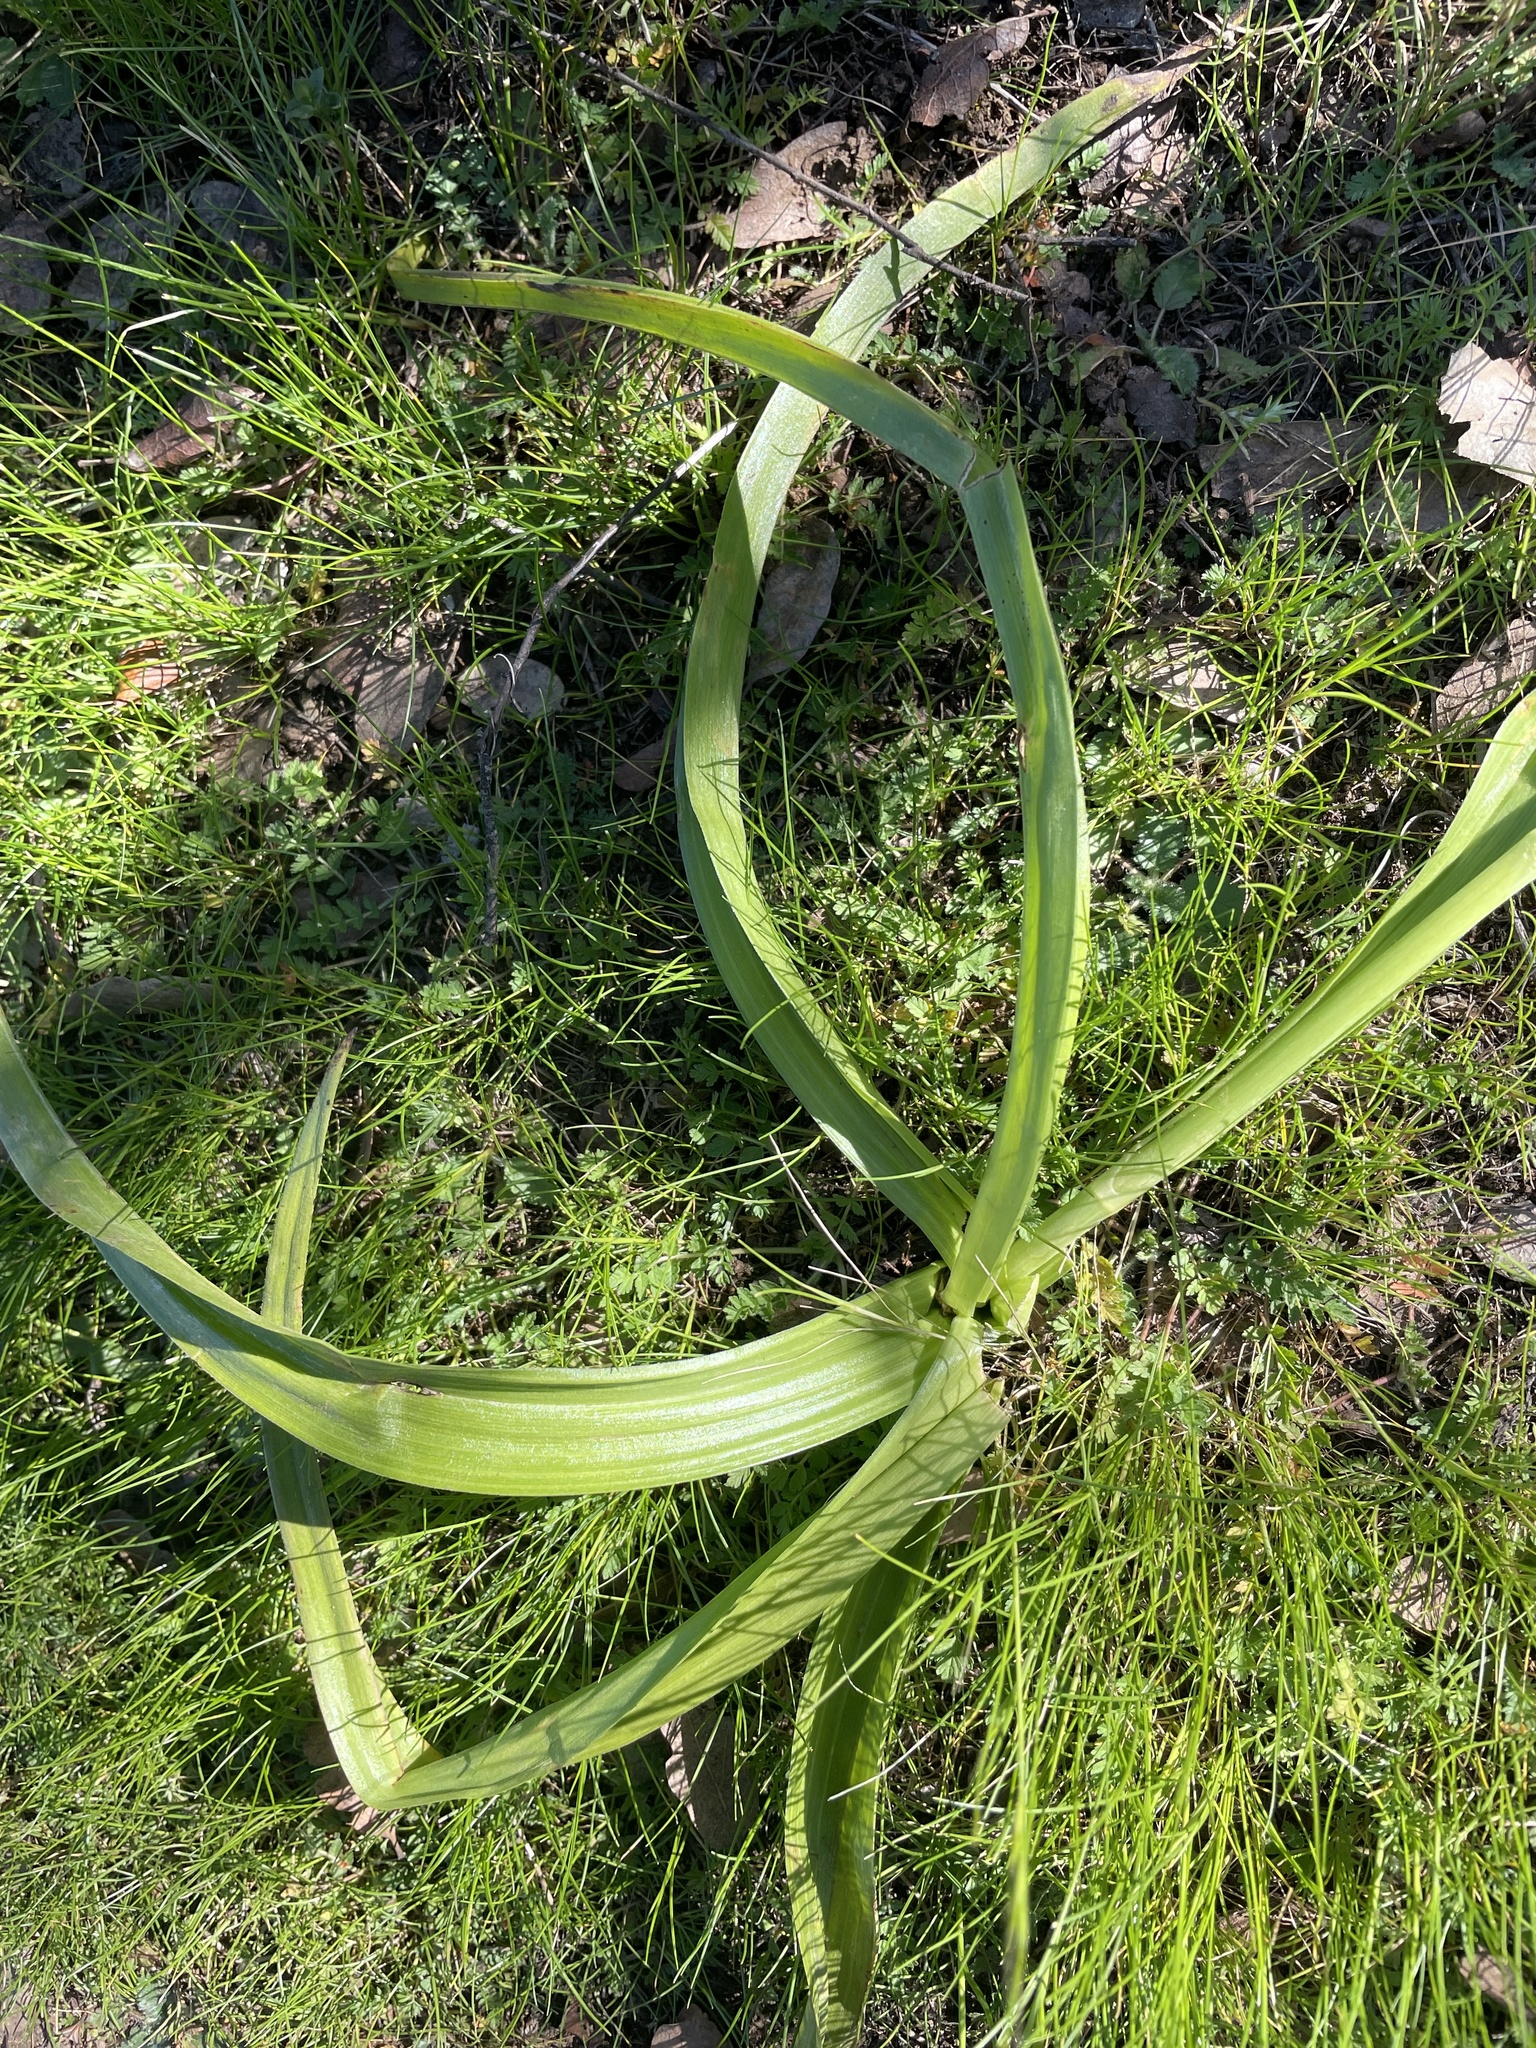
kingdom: Plantae
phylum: Tracheophyta
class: Liliopsida
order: Liliales
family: Melanthiaceae
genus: Toxicoscordion
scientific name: Toxicoscordion fremontii
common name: Fremont's death camas
